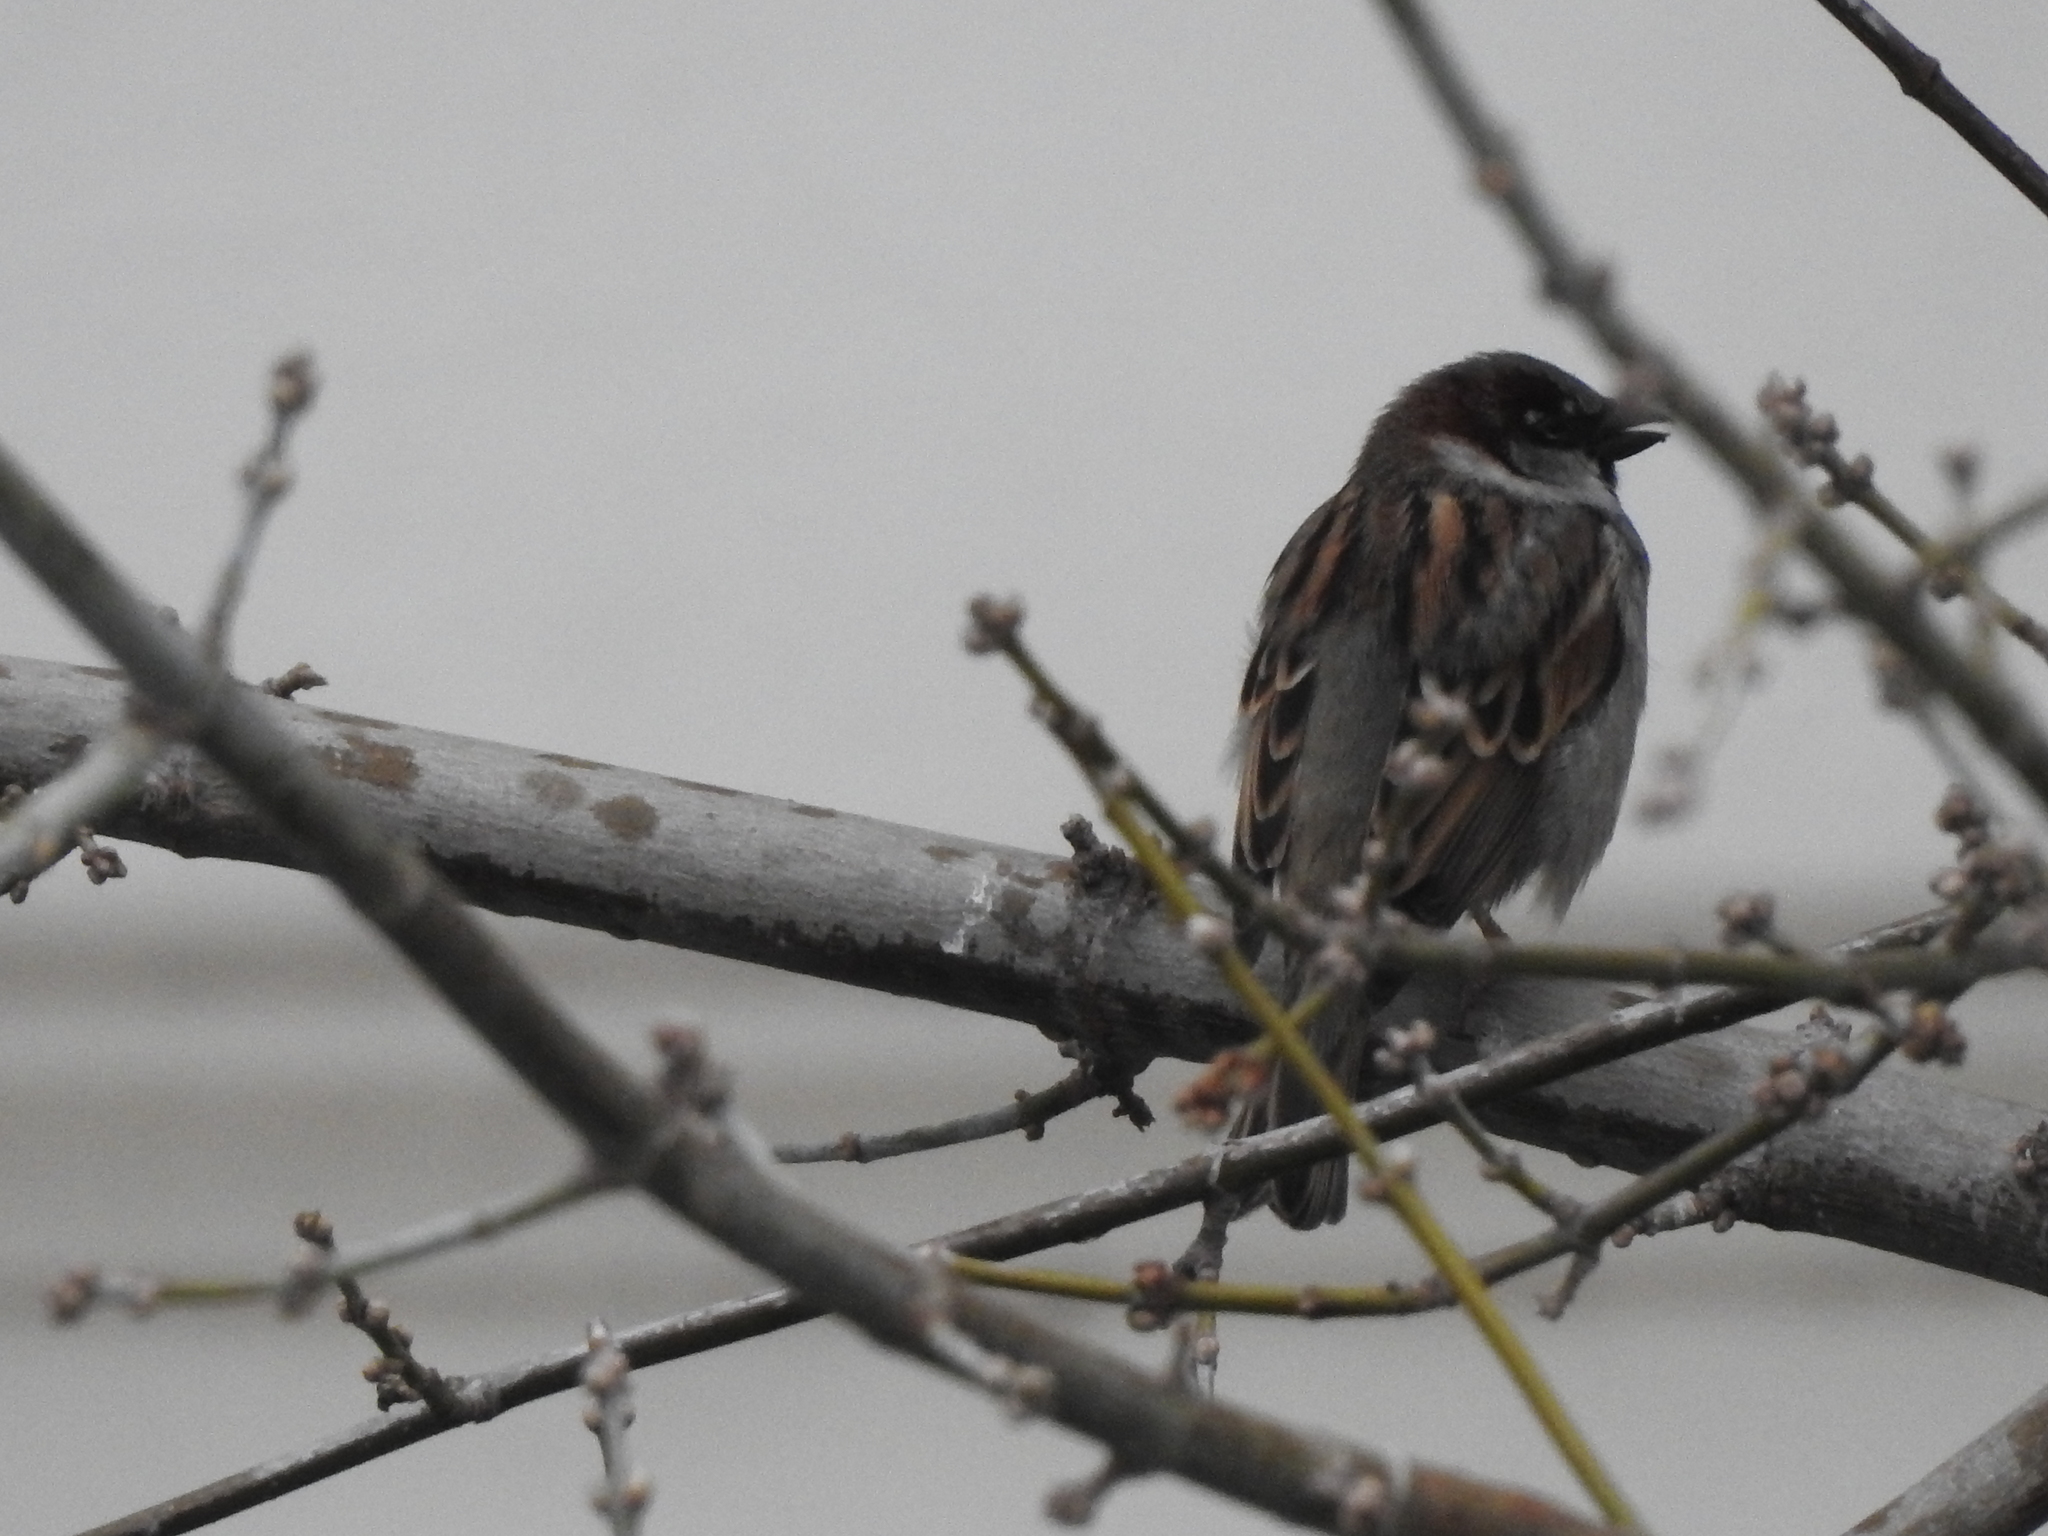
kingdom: Animalia
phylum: Chordata
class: Aves
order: Passeriformes
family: Passeridae
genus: Passer
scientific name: Passer domesticus
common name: House sparrow
